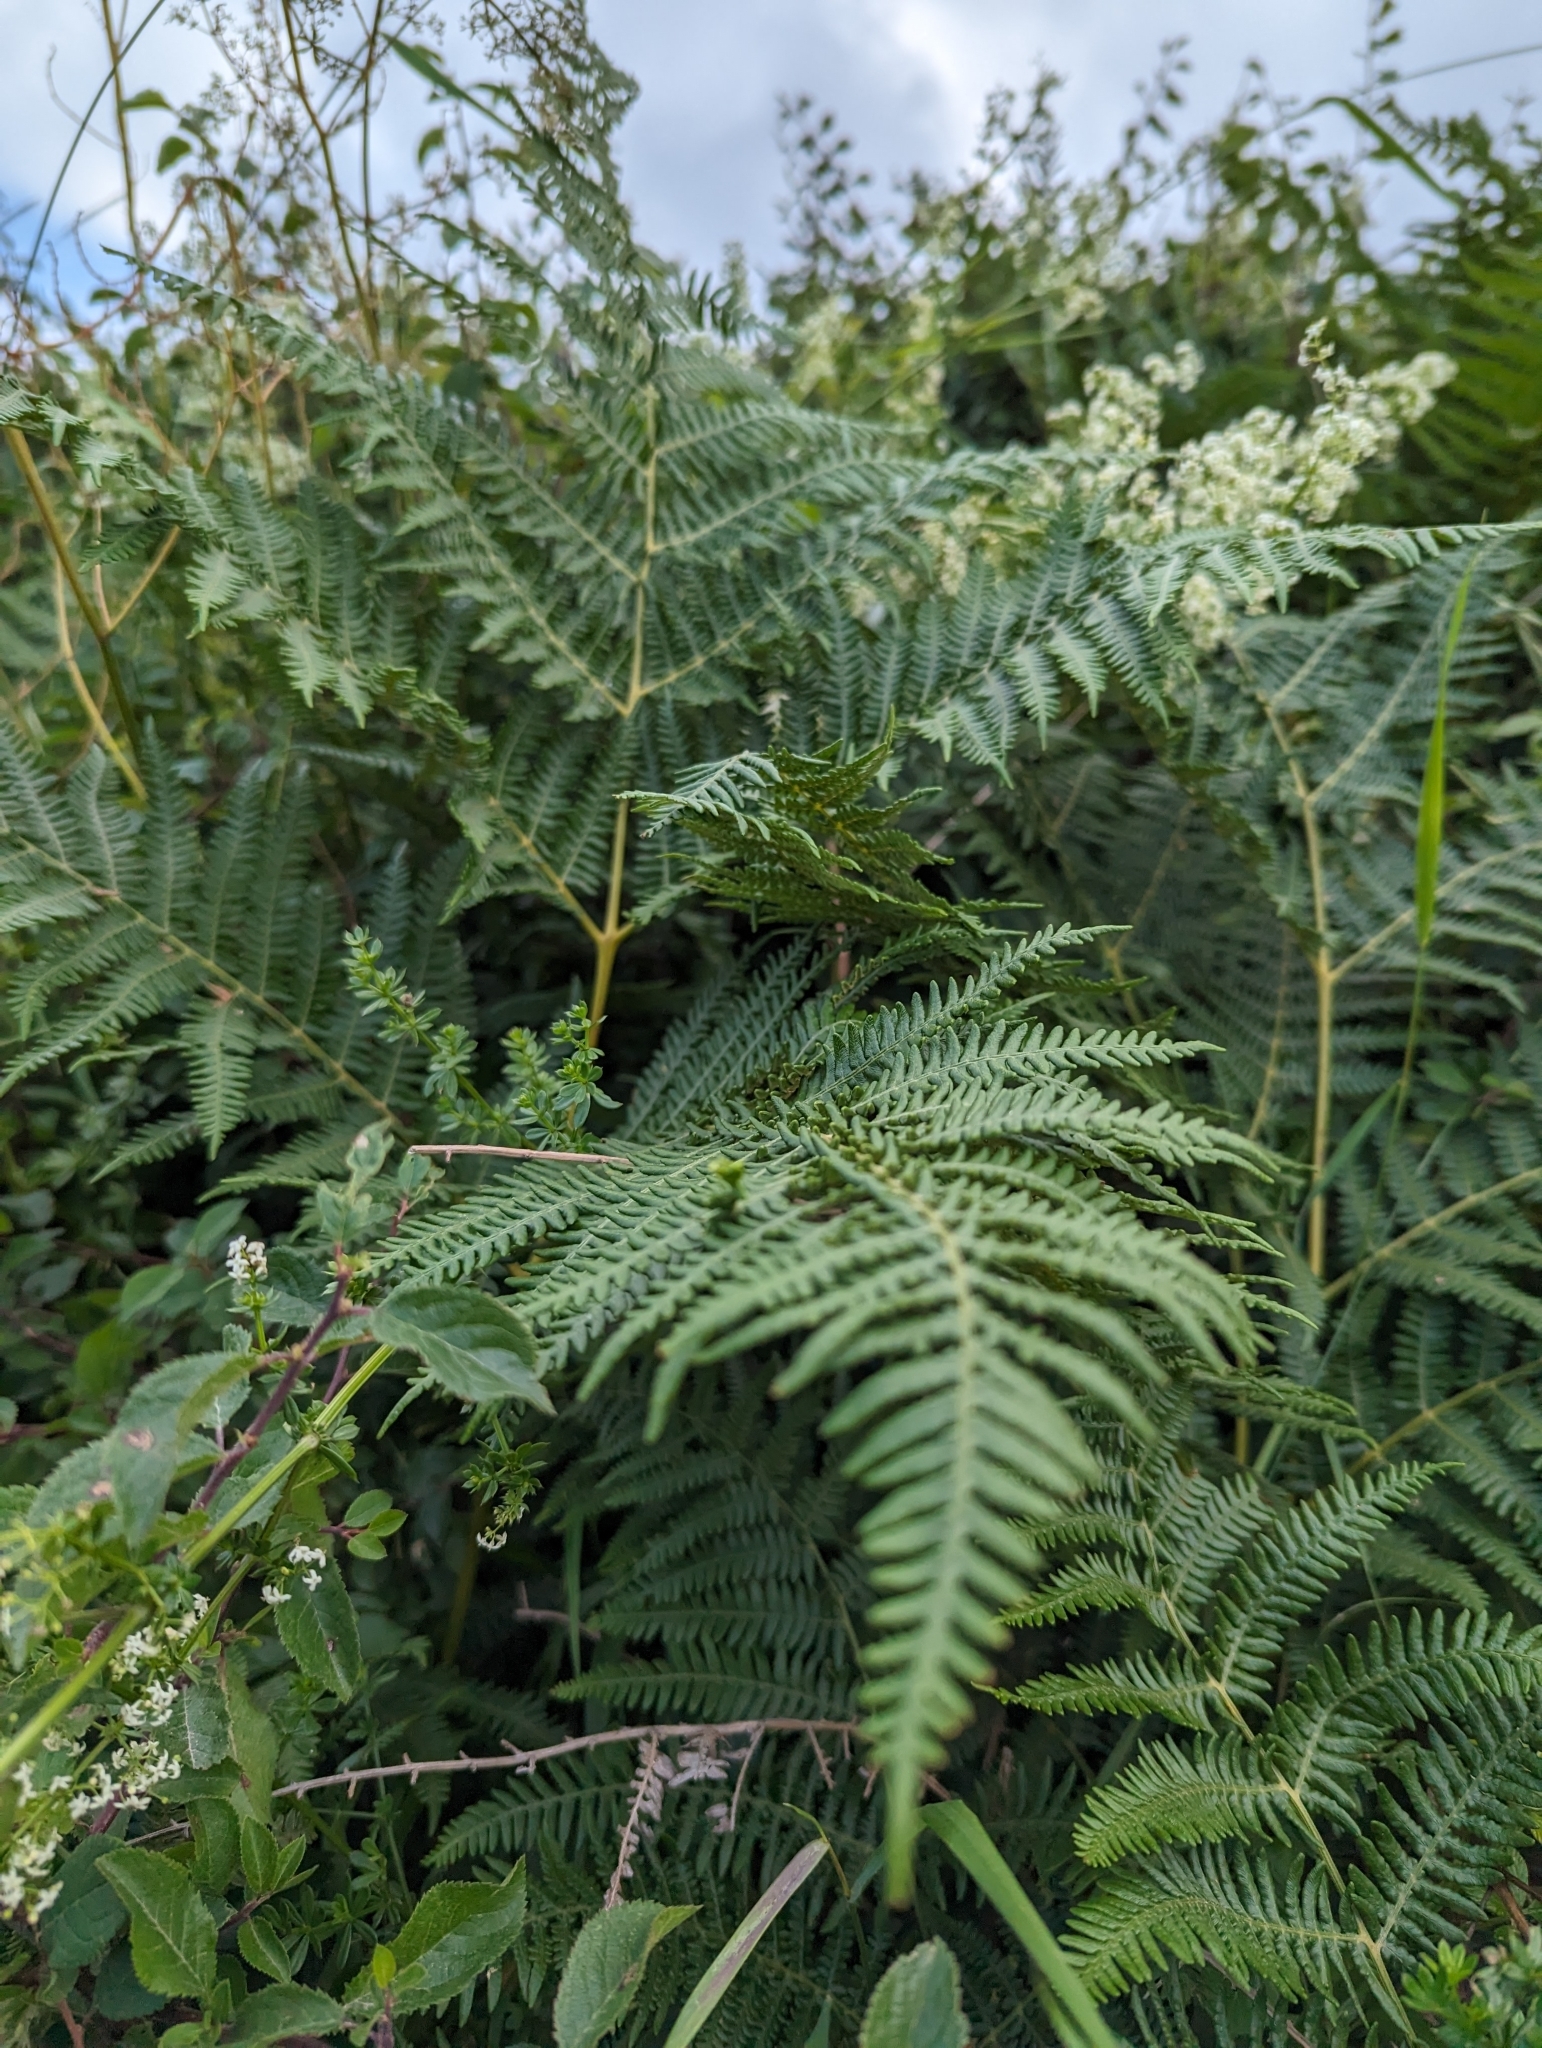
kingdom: Plantae
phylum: Tracheophyta
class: Polypodiopsida
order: Polypodiales
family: Dennstaedtiaceae
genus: Pteridium
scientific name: Pteridium aquilinum
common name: Bracken
